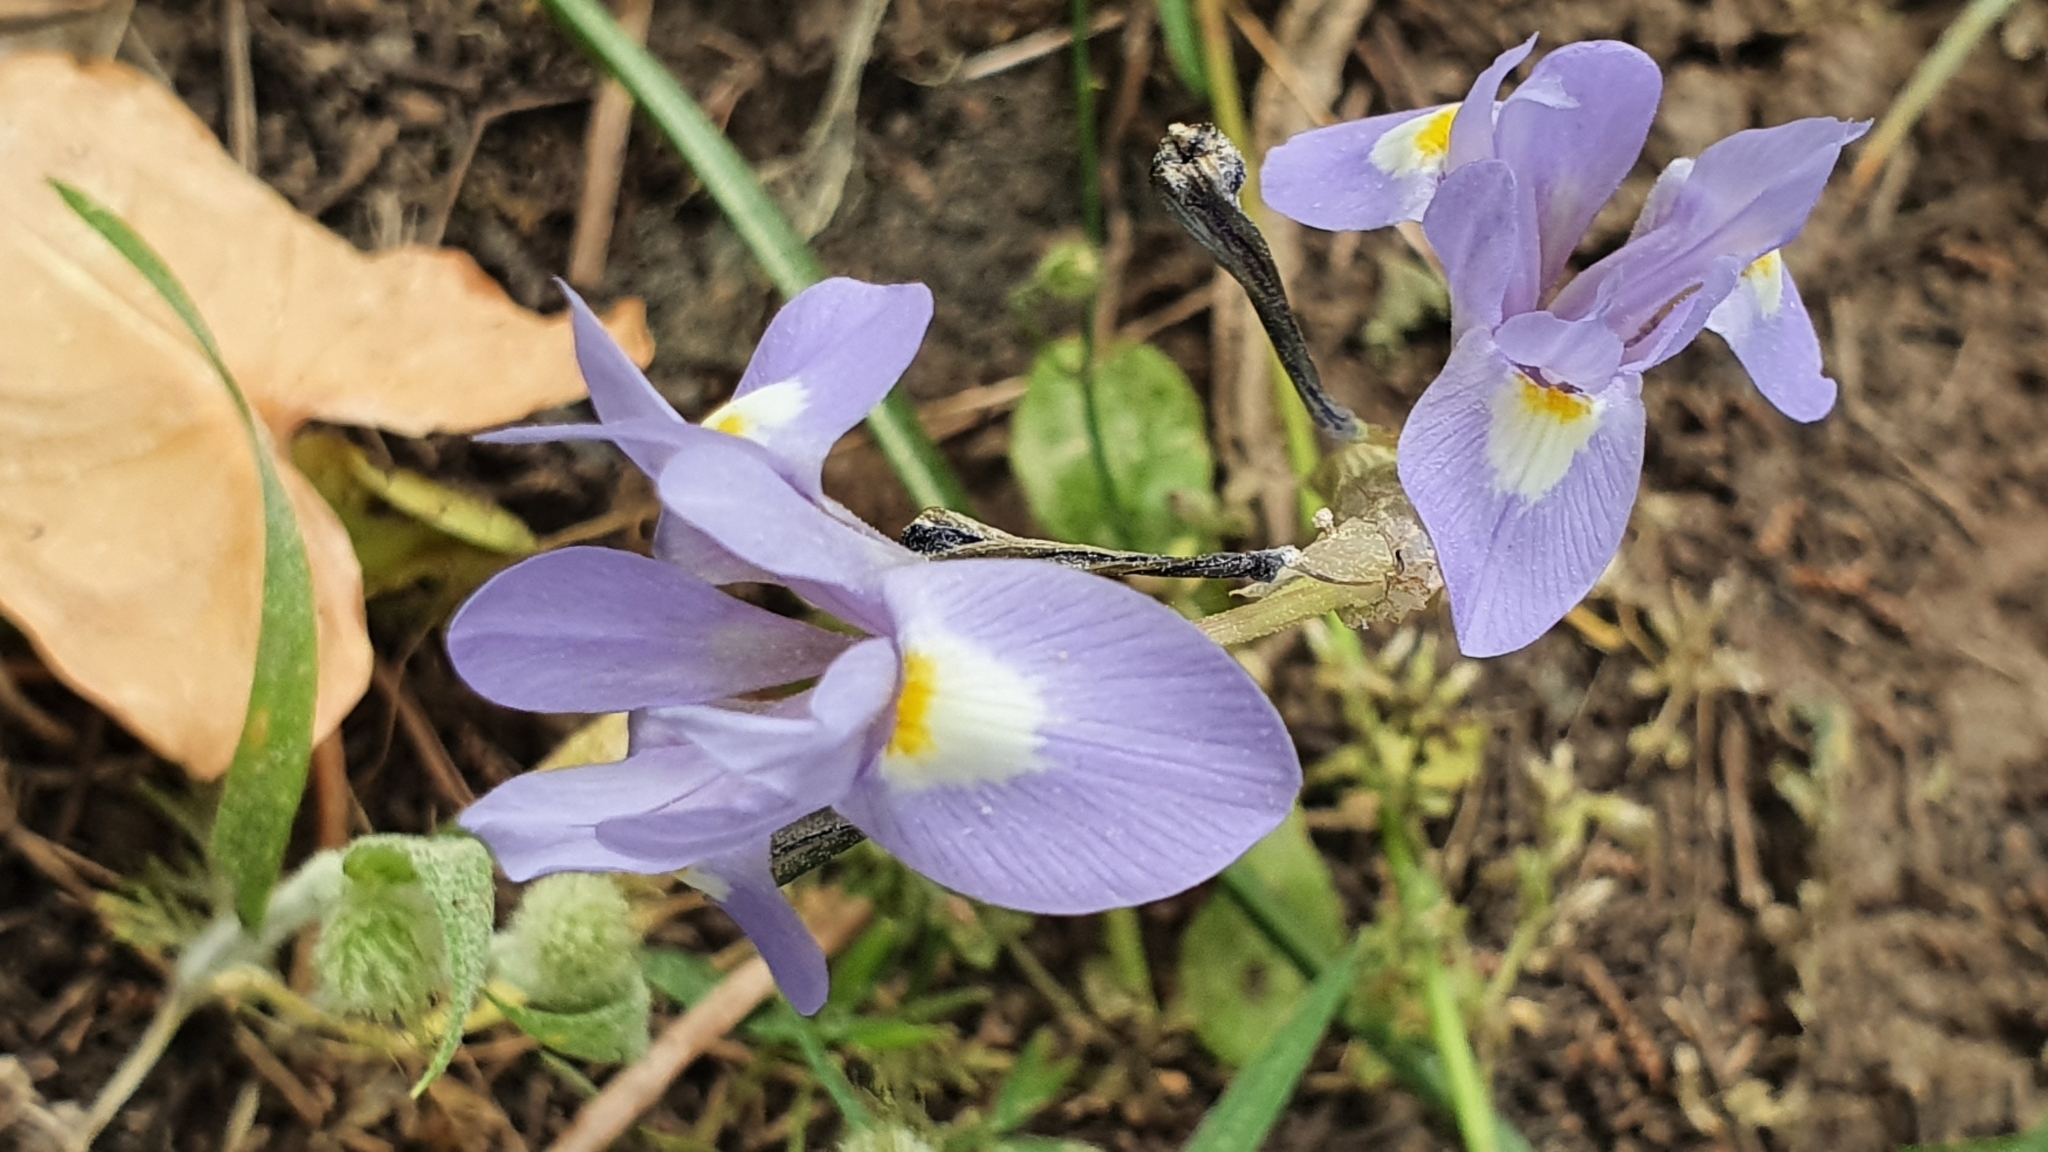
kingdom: Plantae
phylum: Tracheophyta
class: Liliopsida
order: Asparagales
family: Iridaceae
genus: Moraea
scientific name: Moraea sisyrinchium
